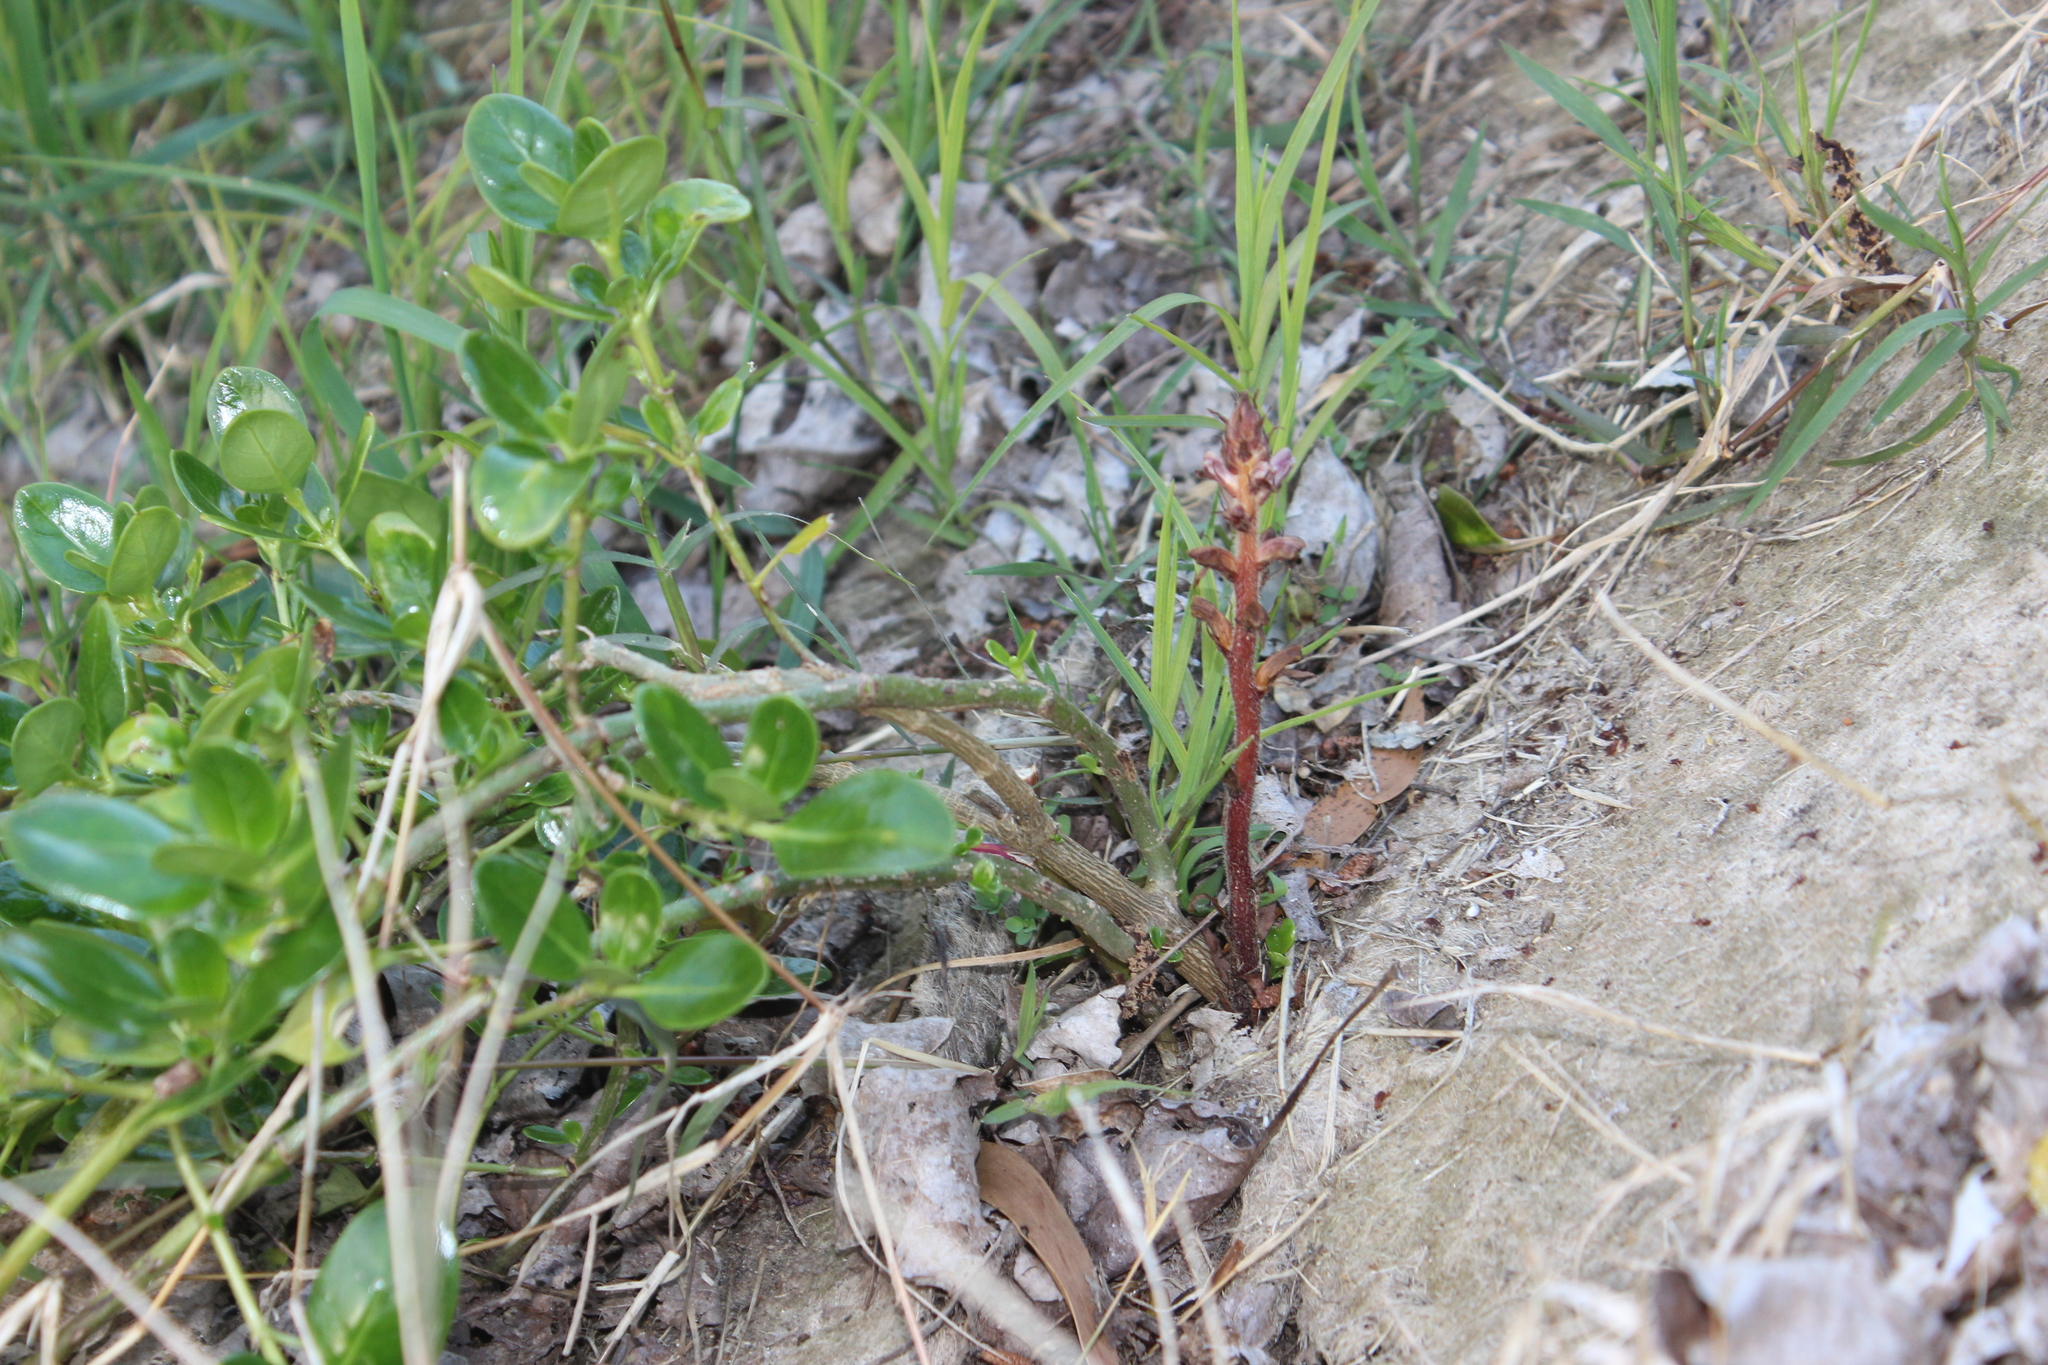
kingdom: Plantae
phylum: Tracheophyta
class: Magnoliopsida
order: Lamiales
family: Orobanchaceae
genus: Orobanche
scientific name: Orobanche minor
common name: Common broomrape
